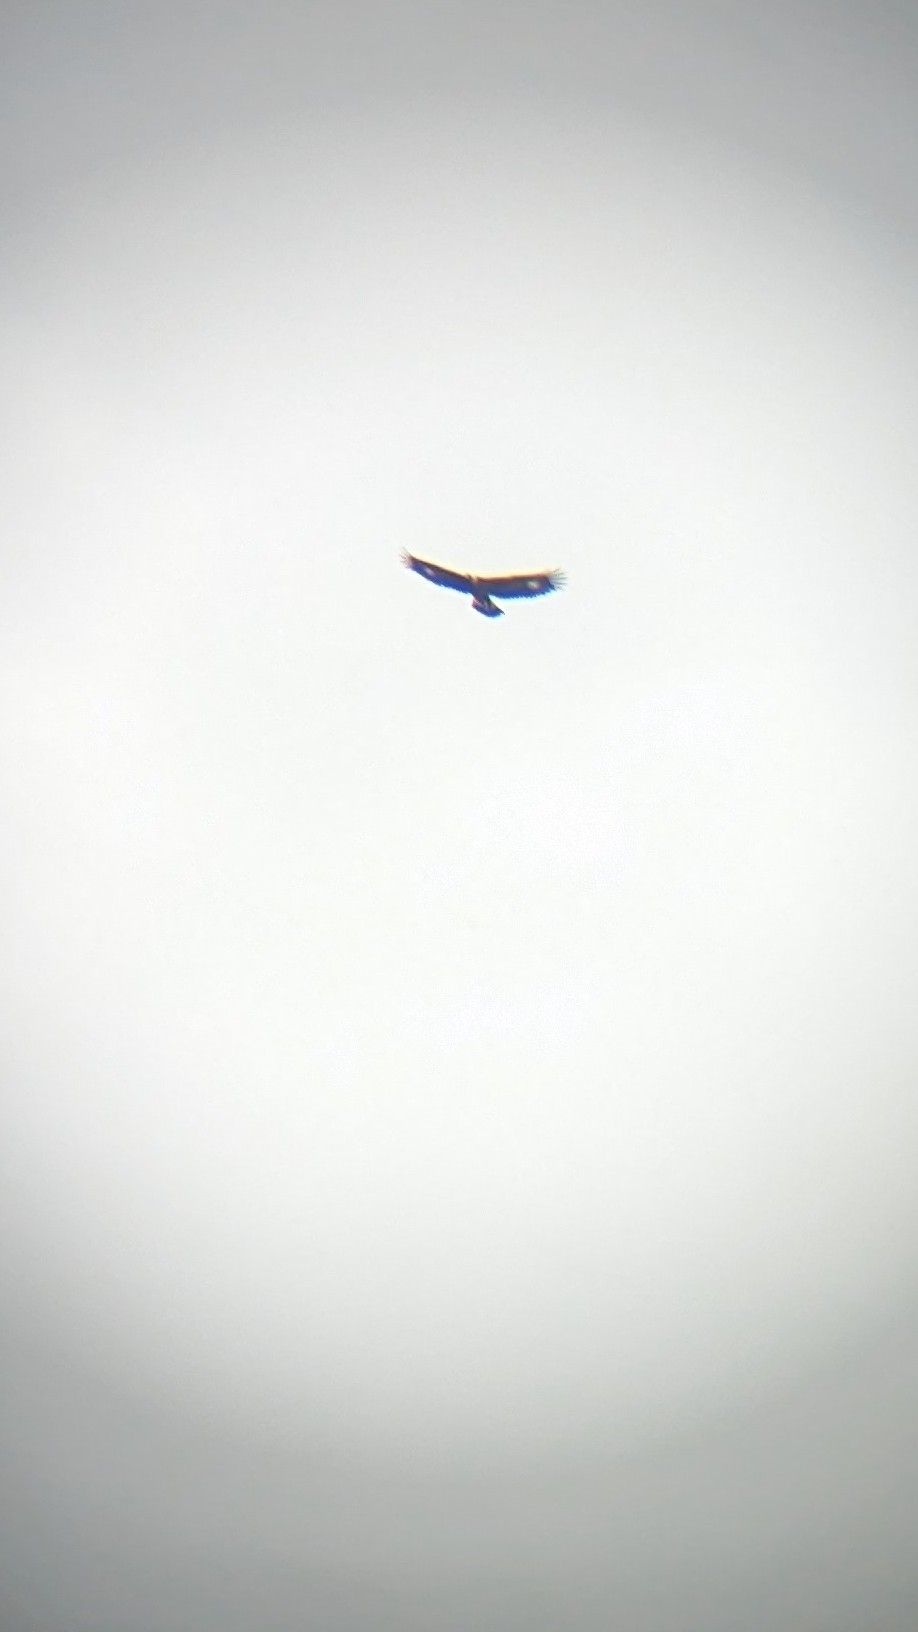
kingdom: Animalia
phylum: Chordata
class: Aves
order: Accipitriformes
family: Accipitridae
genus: Aquila
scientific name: Aquila chrysaetos
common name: Golden eagle
